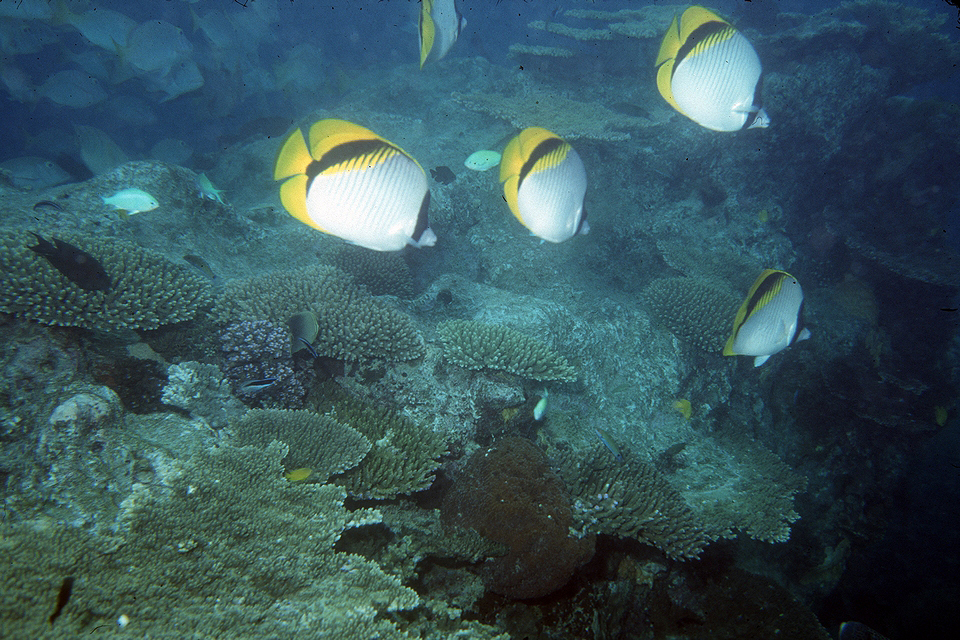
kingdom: Animalia
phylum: Chordata
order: Perciformes
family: Chaetodontidae
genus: Chaetodon
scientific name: Chaetodon lineolatus
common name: Lined butterflyfish
